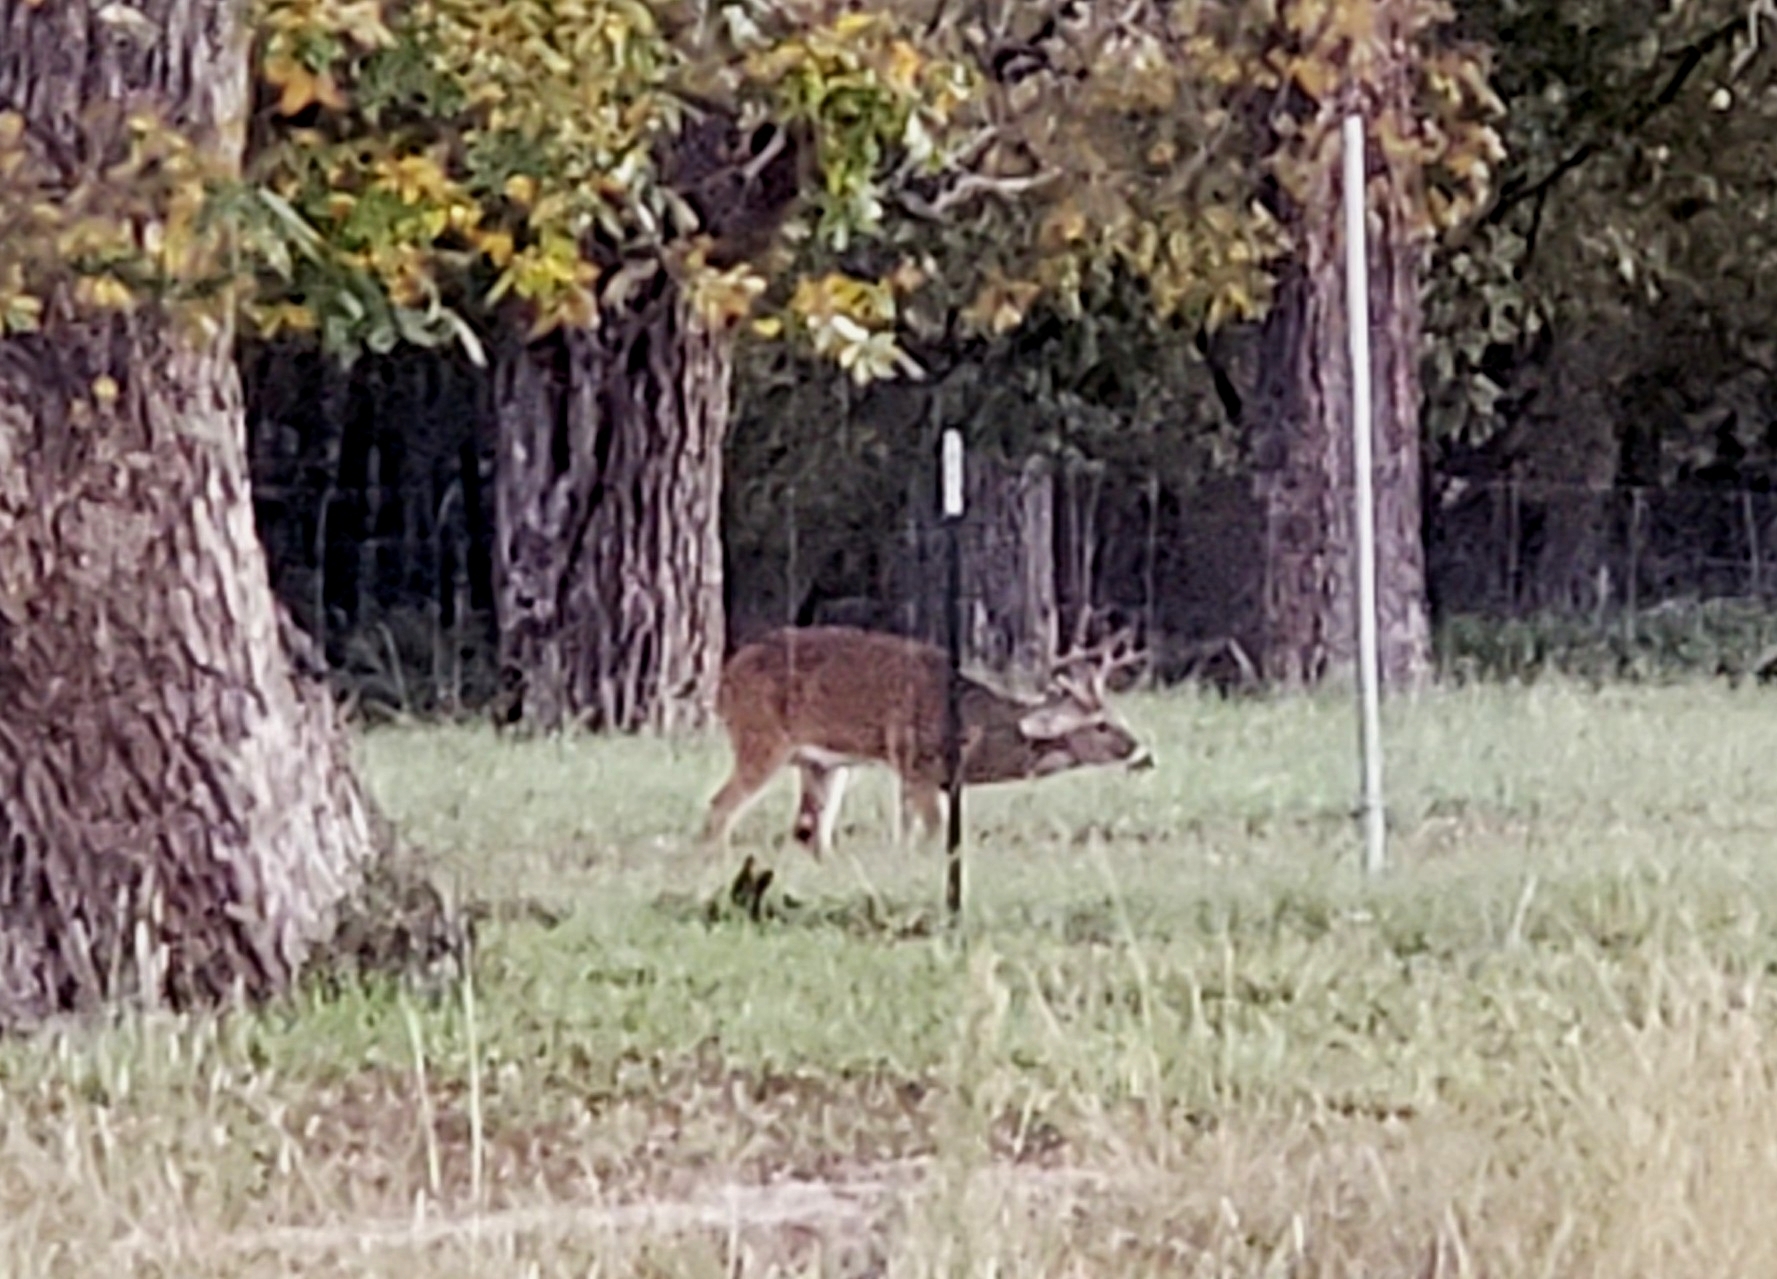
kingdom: Animalia
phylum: Chordata
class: Mammalia
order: Artiodactyla
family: Cervidae
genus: Odocoileus
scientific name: Odocoileus virginianus
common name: White-tailed deer
